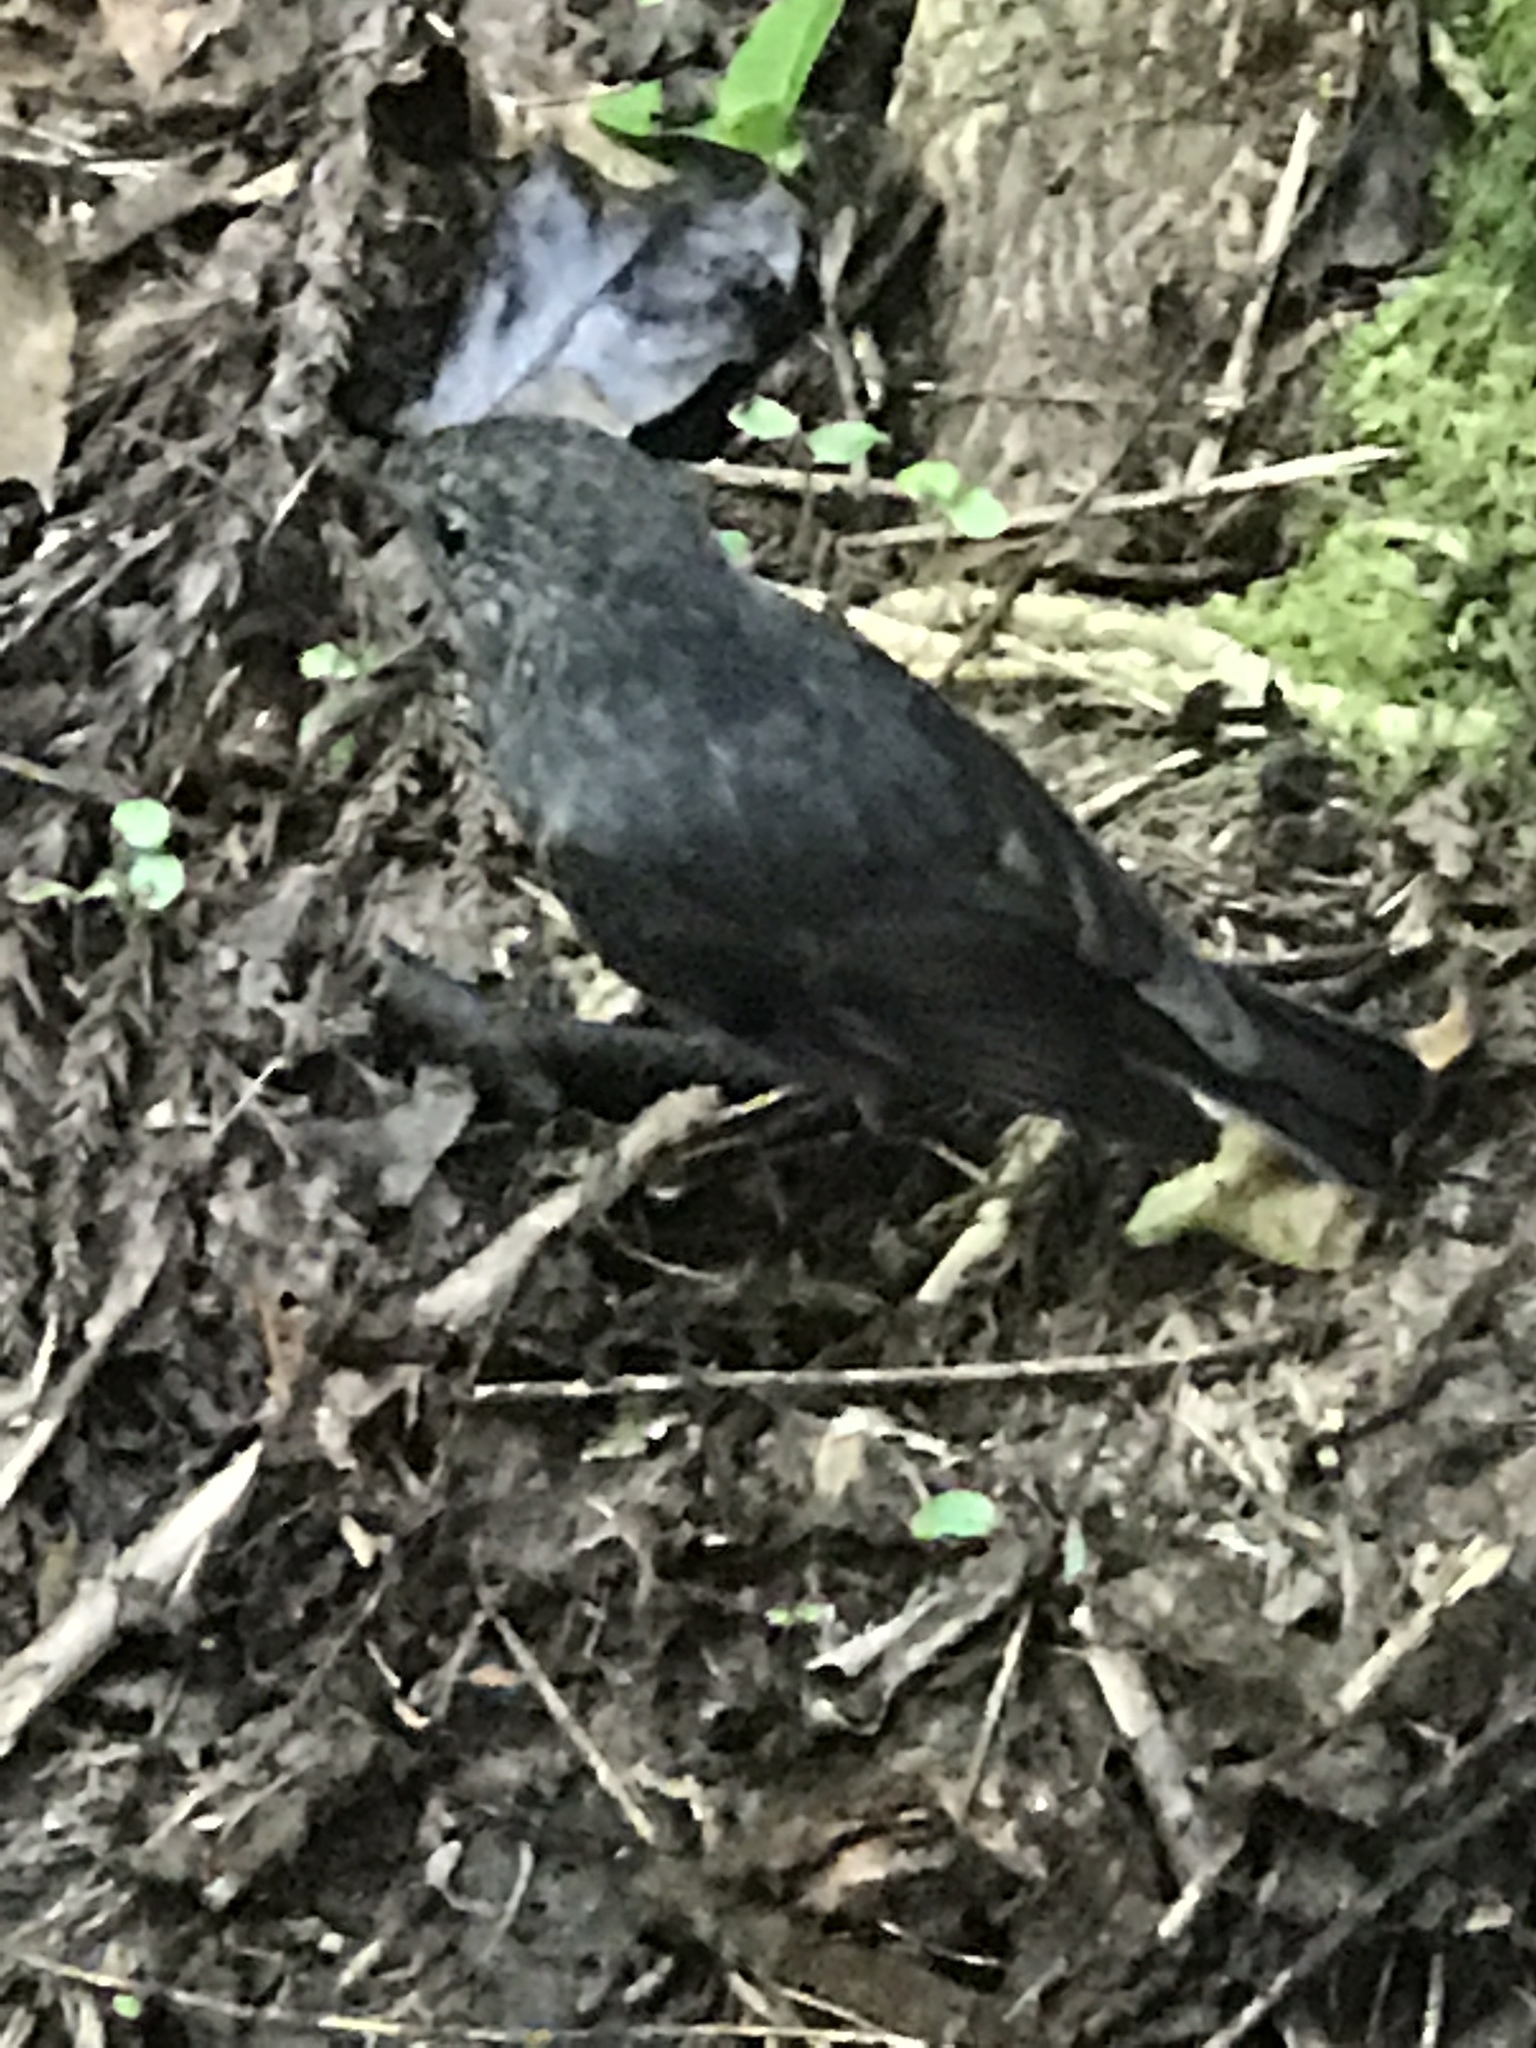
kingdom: Animalia
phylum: Chordata
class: Aves
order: Passeriformes
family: Petroicidae
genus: Petroica
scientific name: Petroica australis
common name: New zealand robin
